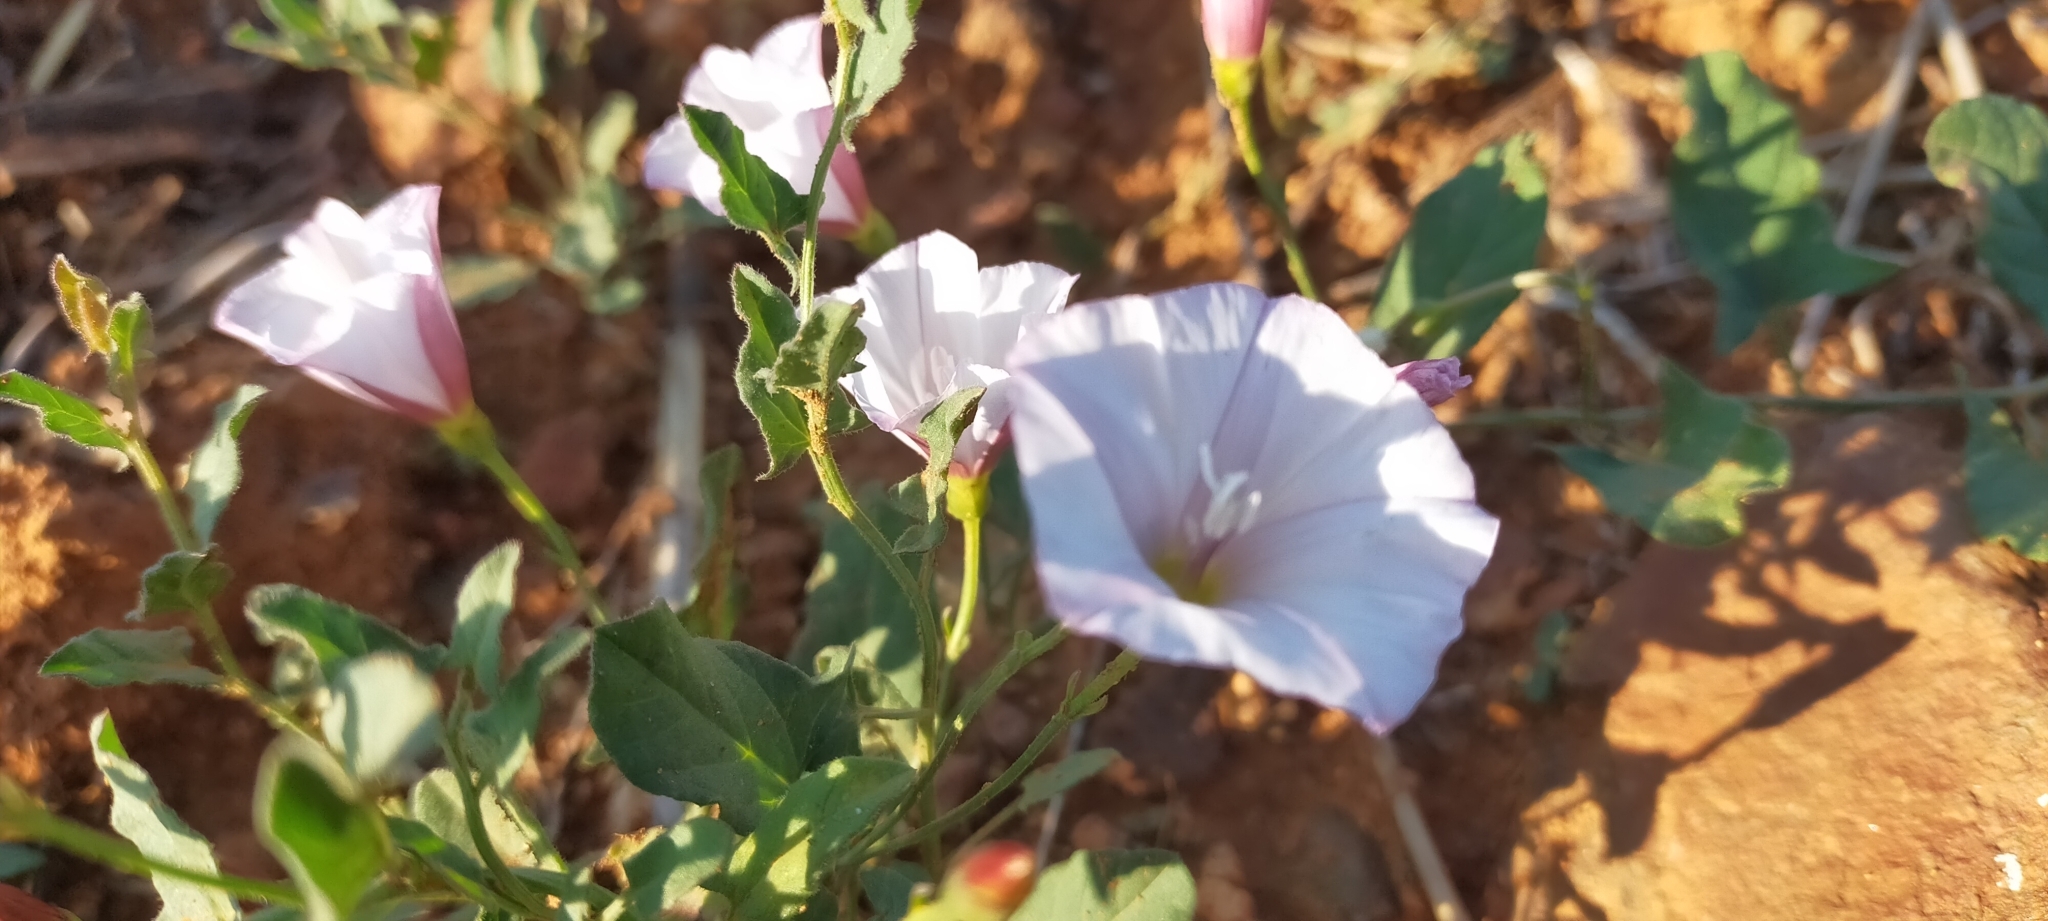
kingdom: Plantae
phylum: Tracheophyta
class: Magnoliopsida
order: Solanales
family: Convolvulaceae
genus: Convolvulus
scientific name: Convolvulus arvensis
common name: Field bindweed
